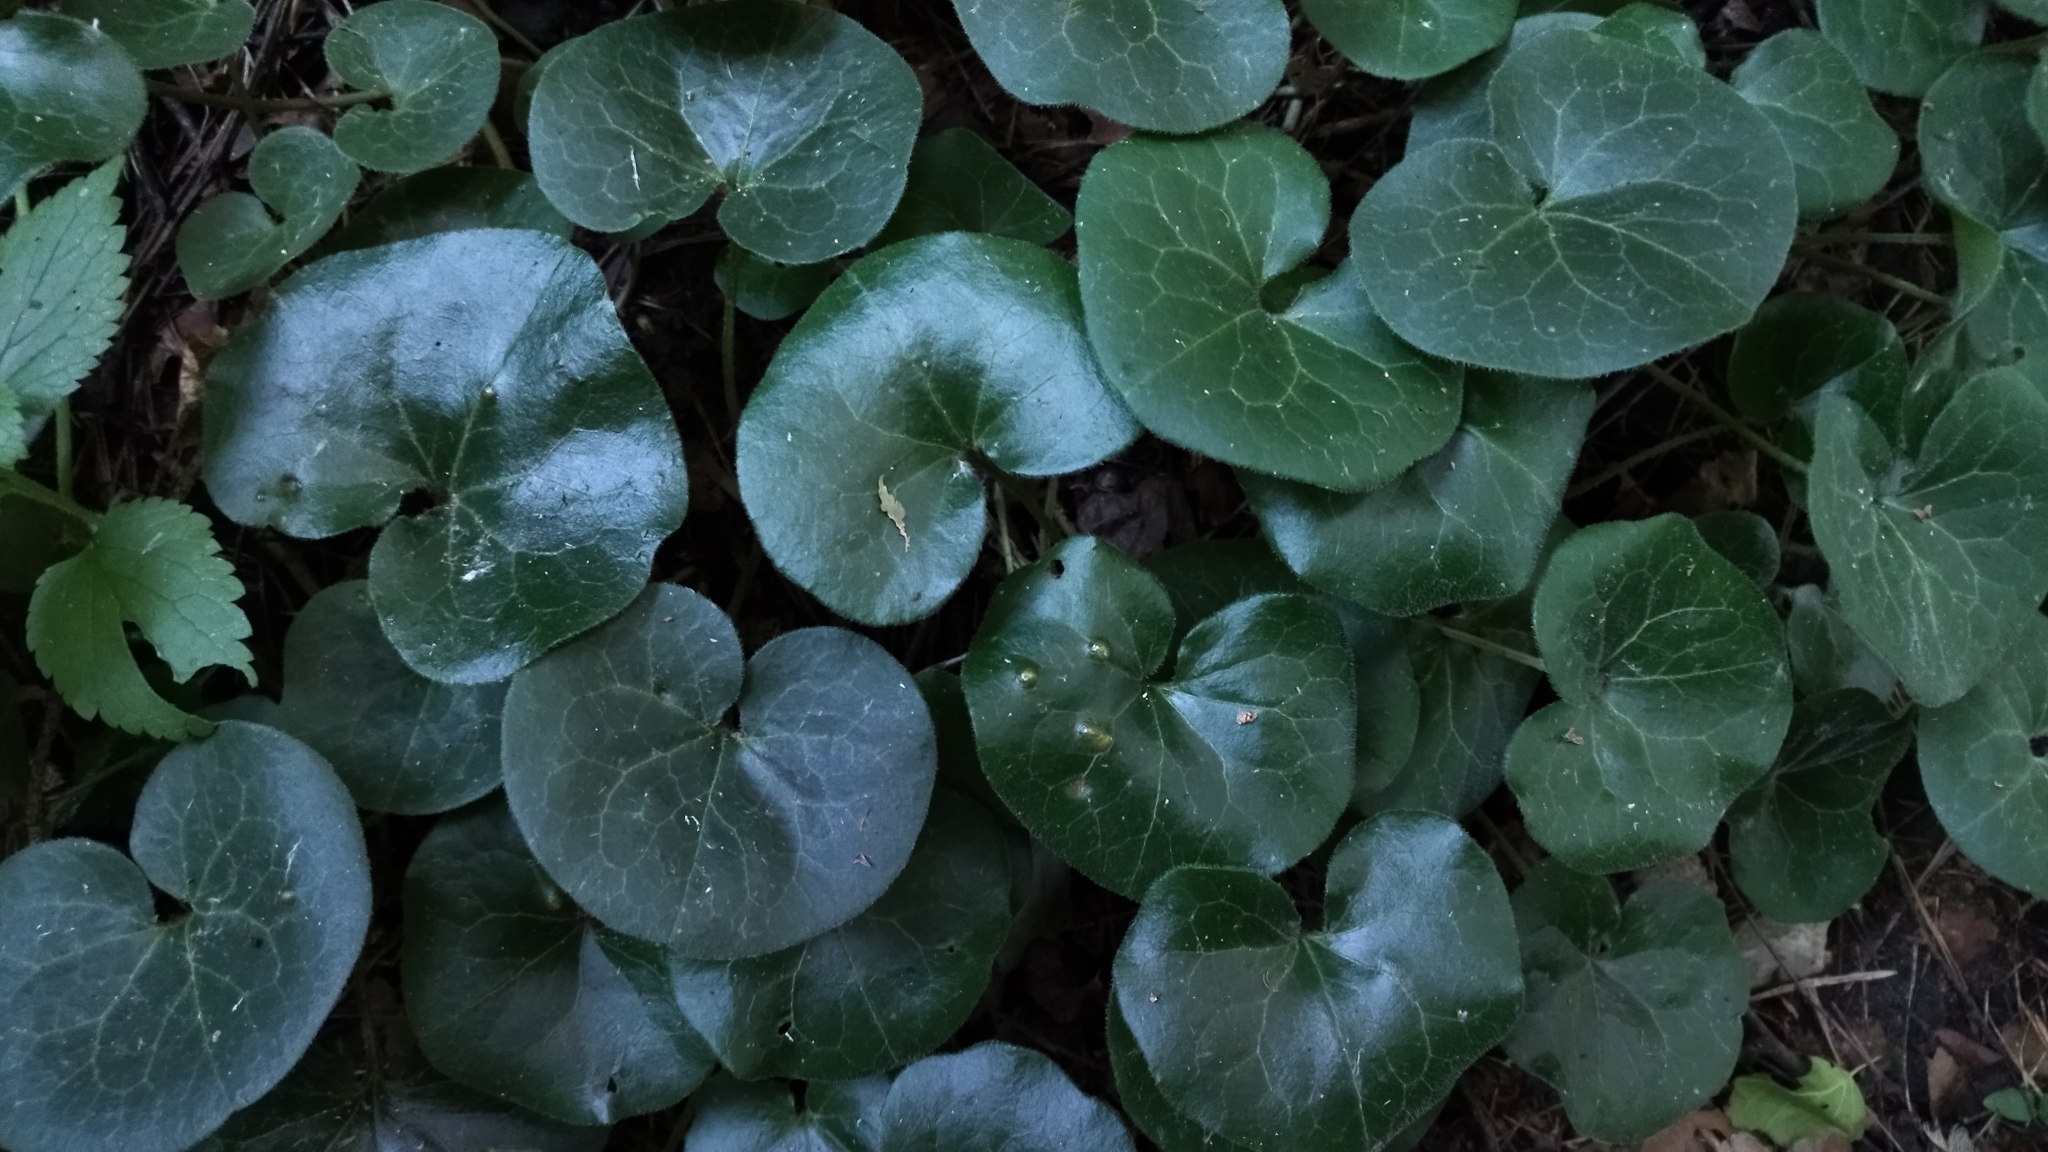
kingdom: Plantae
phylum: Tracheophyta
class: Magnoliopsida
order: Piperales
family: Aristolochiaceae
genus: Asarum
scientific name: Asarum europaeum
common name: Asarabacca
